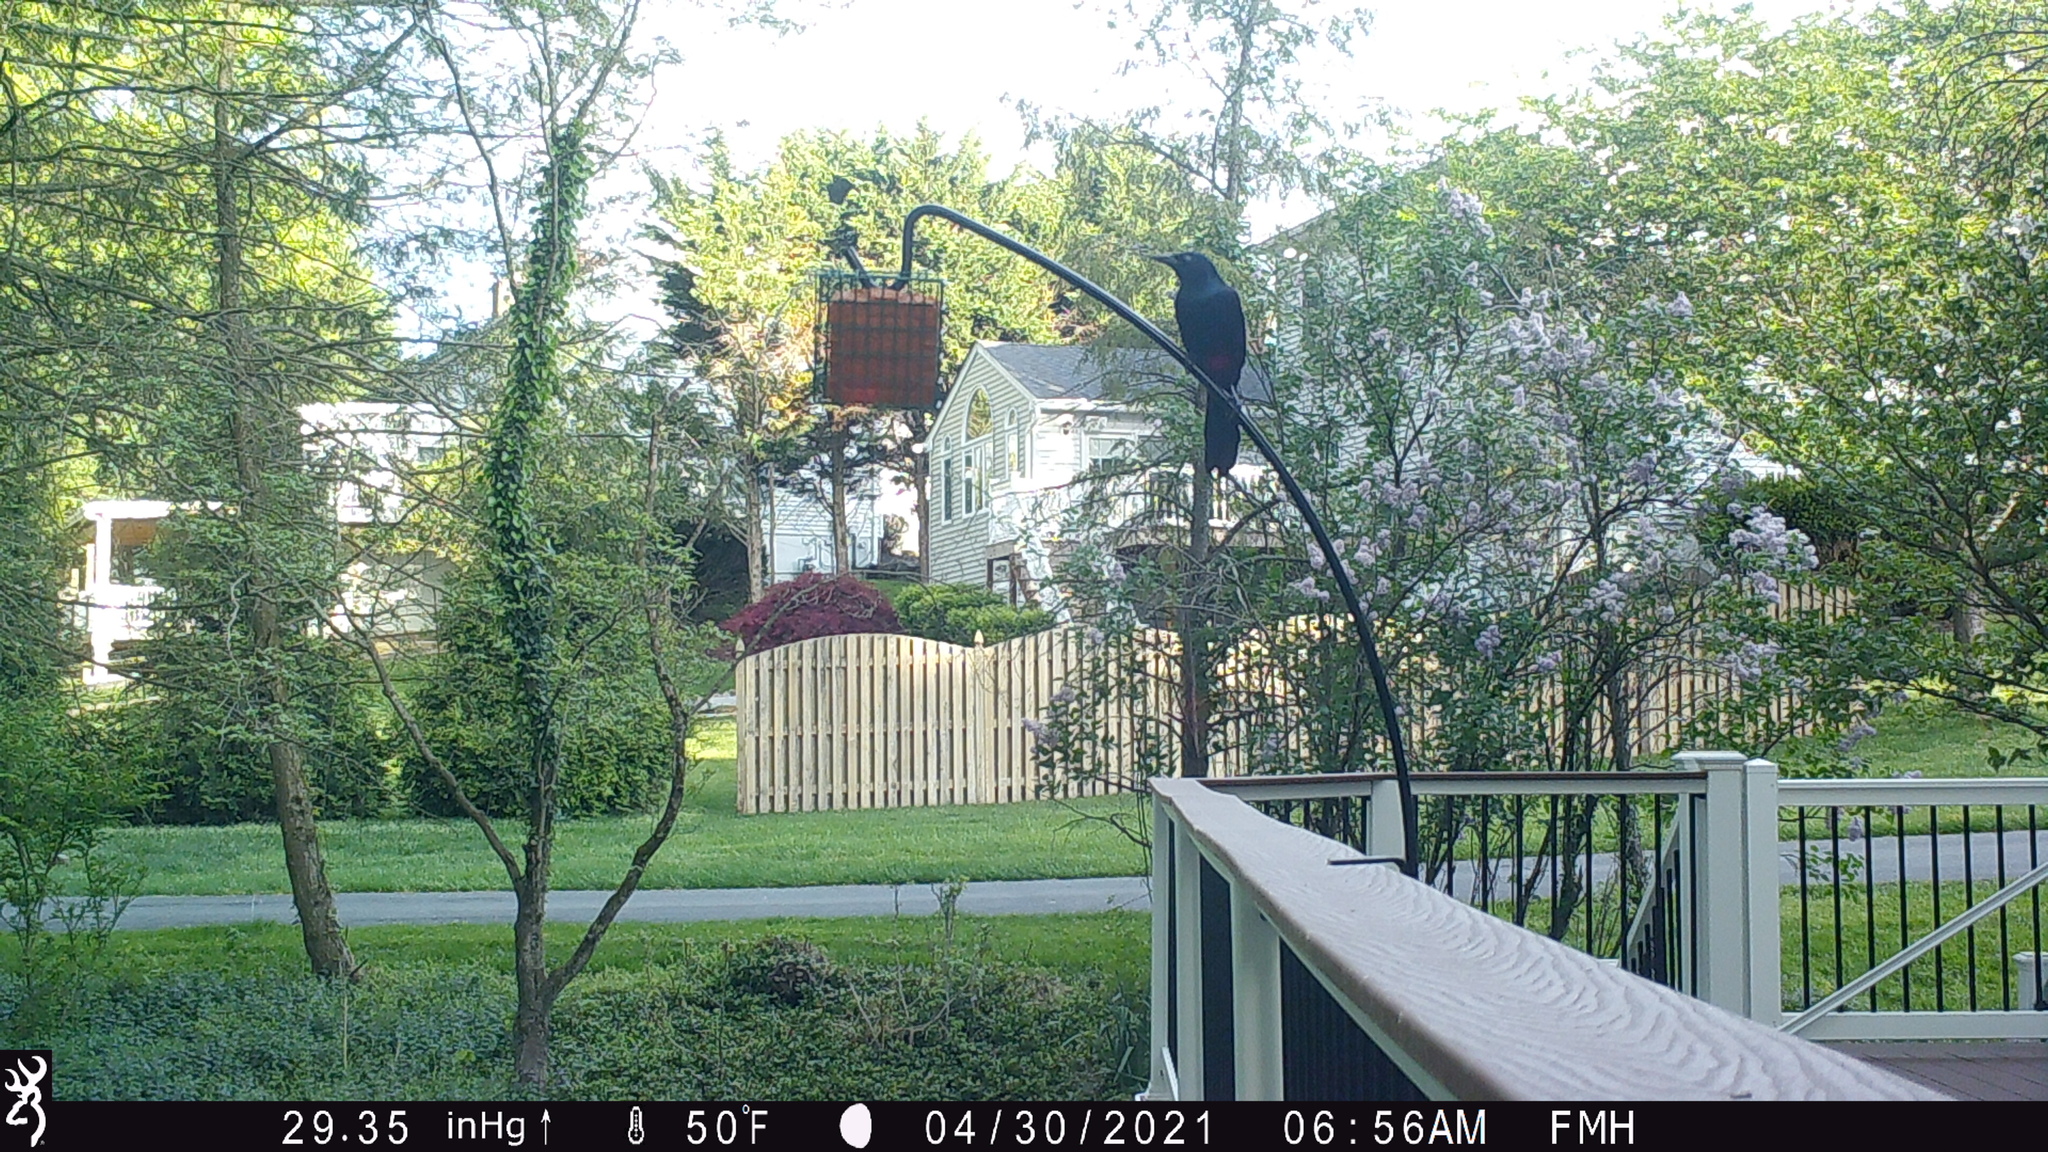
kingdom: Animalia
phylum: Chordata
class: Aves
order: Passeriformes
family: Icteridae
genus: Quiscalus
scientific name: Quiscalus quiscula
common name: Common grackle
